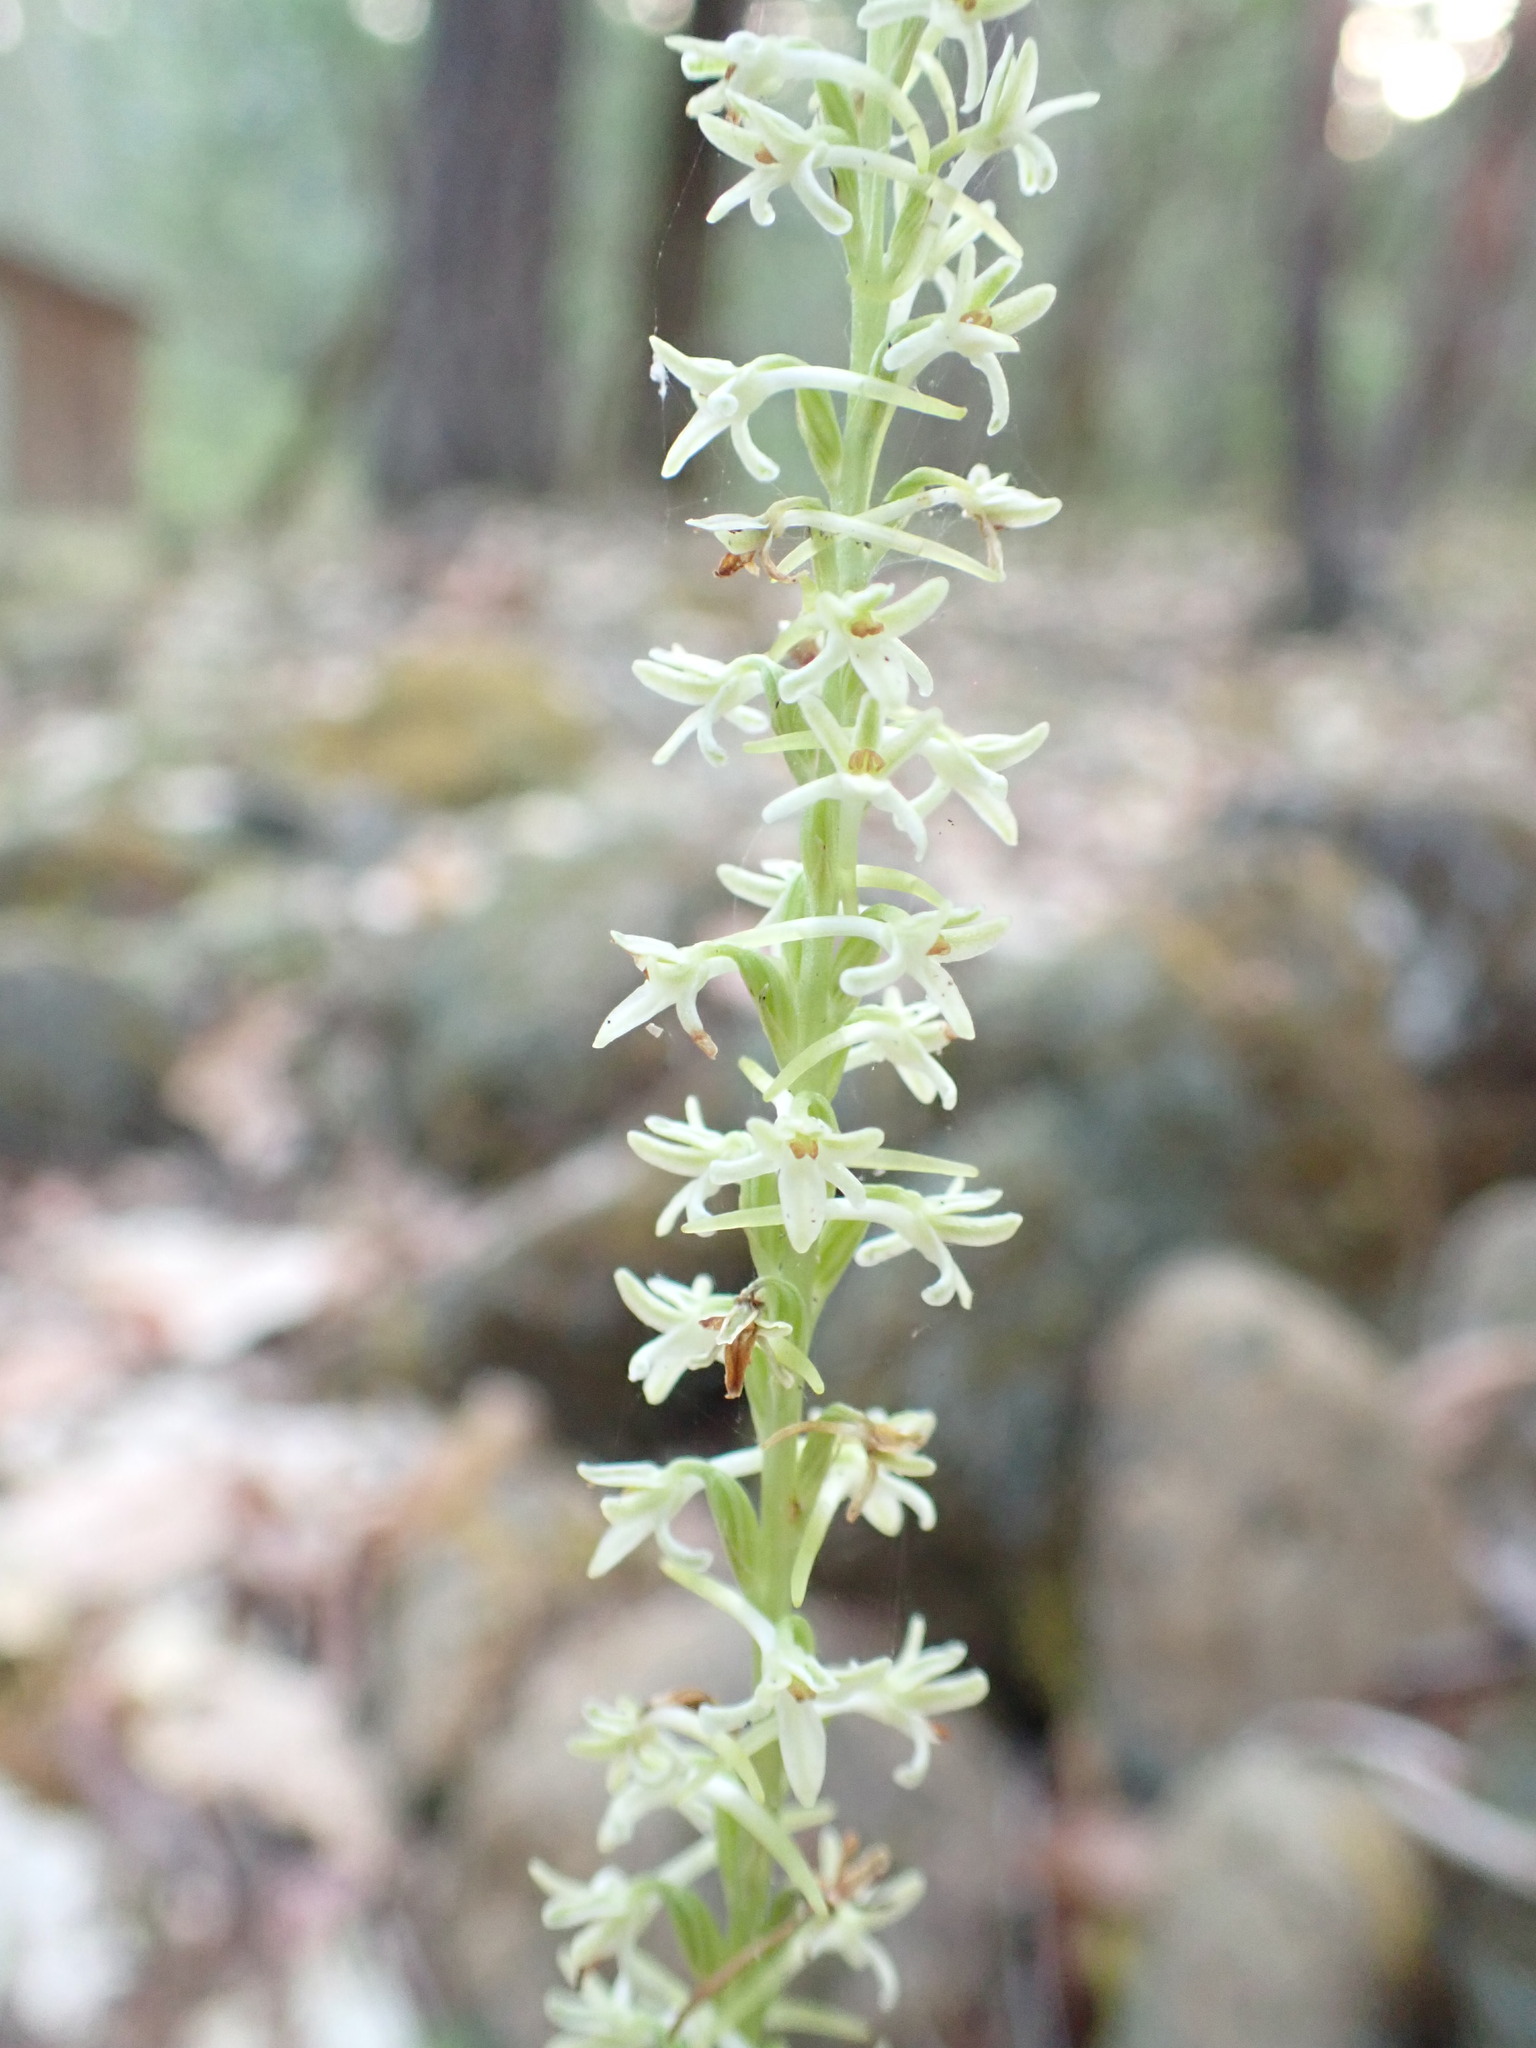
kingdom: Plantae
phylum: Tracheophyta
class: Liliopsida
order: Asparagales
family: Orchidaceae
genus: Platanthera
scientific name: Platanthera transversa
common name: Royal rein orchid
